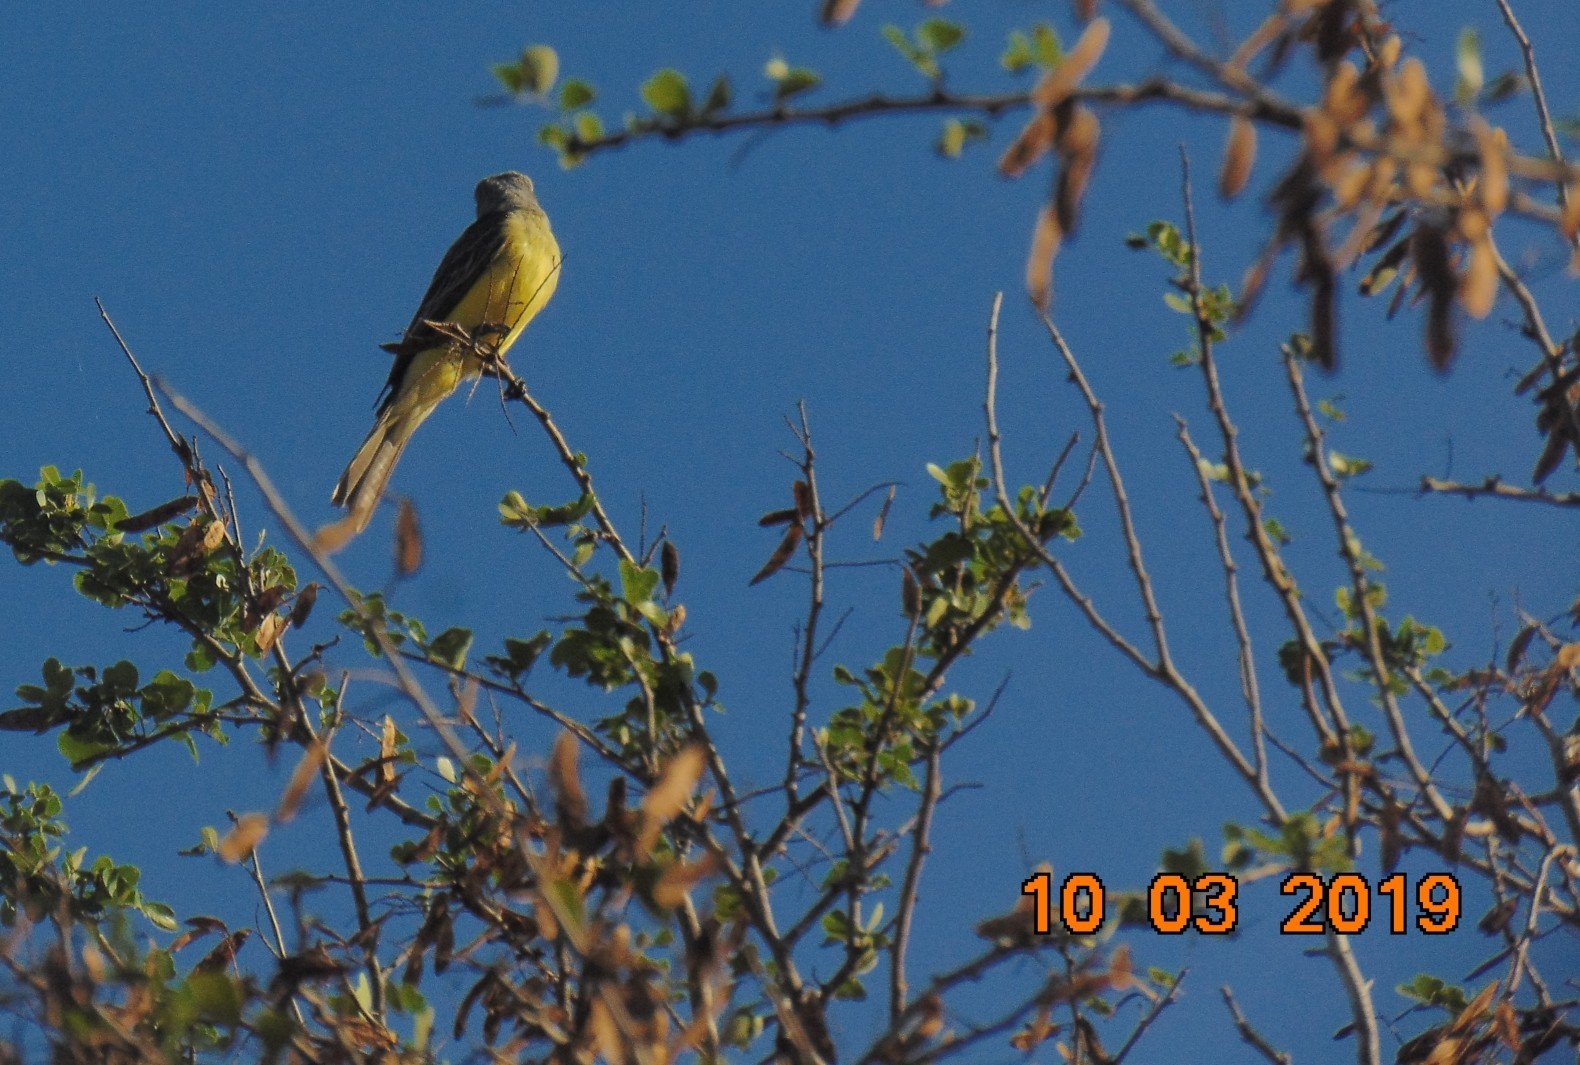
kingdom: Animalia
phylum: Chordata
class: Aves
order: Passeriformes
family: Tyrannidae
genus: Tyrannus
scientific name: Tyrannus melancholicus
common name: Tropical kingbird
